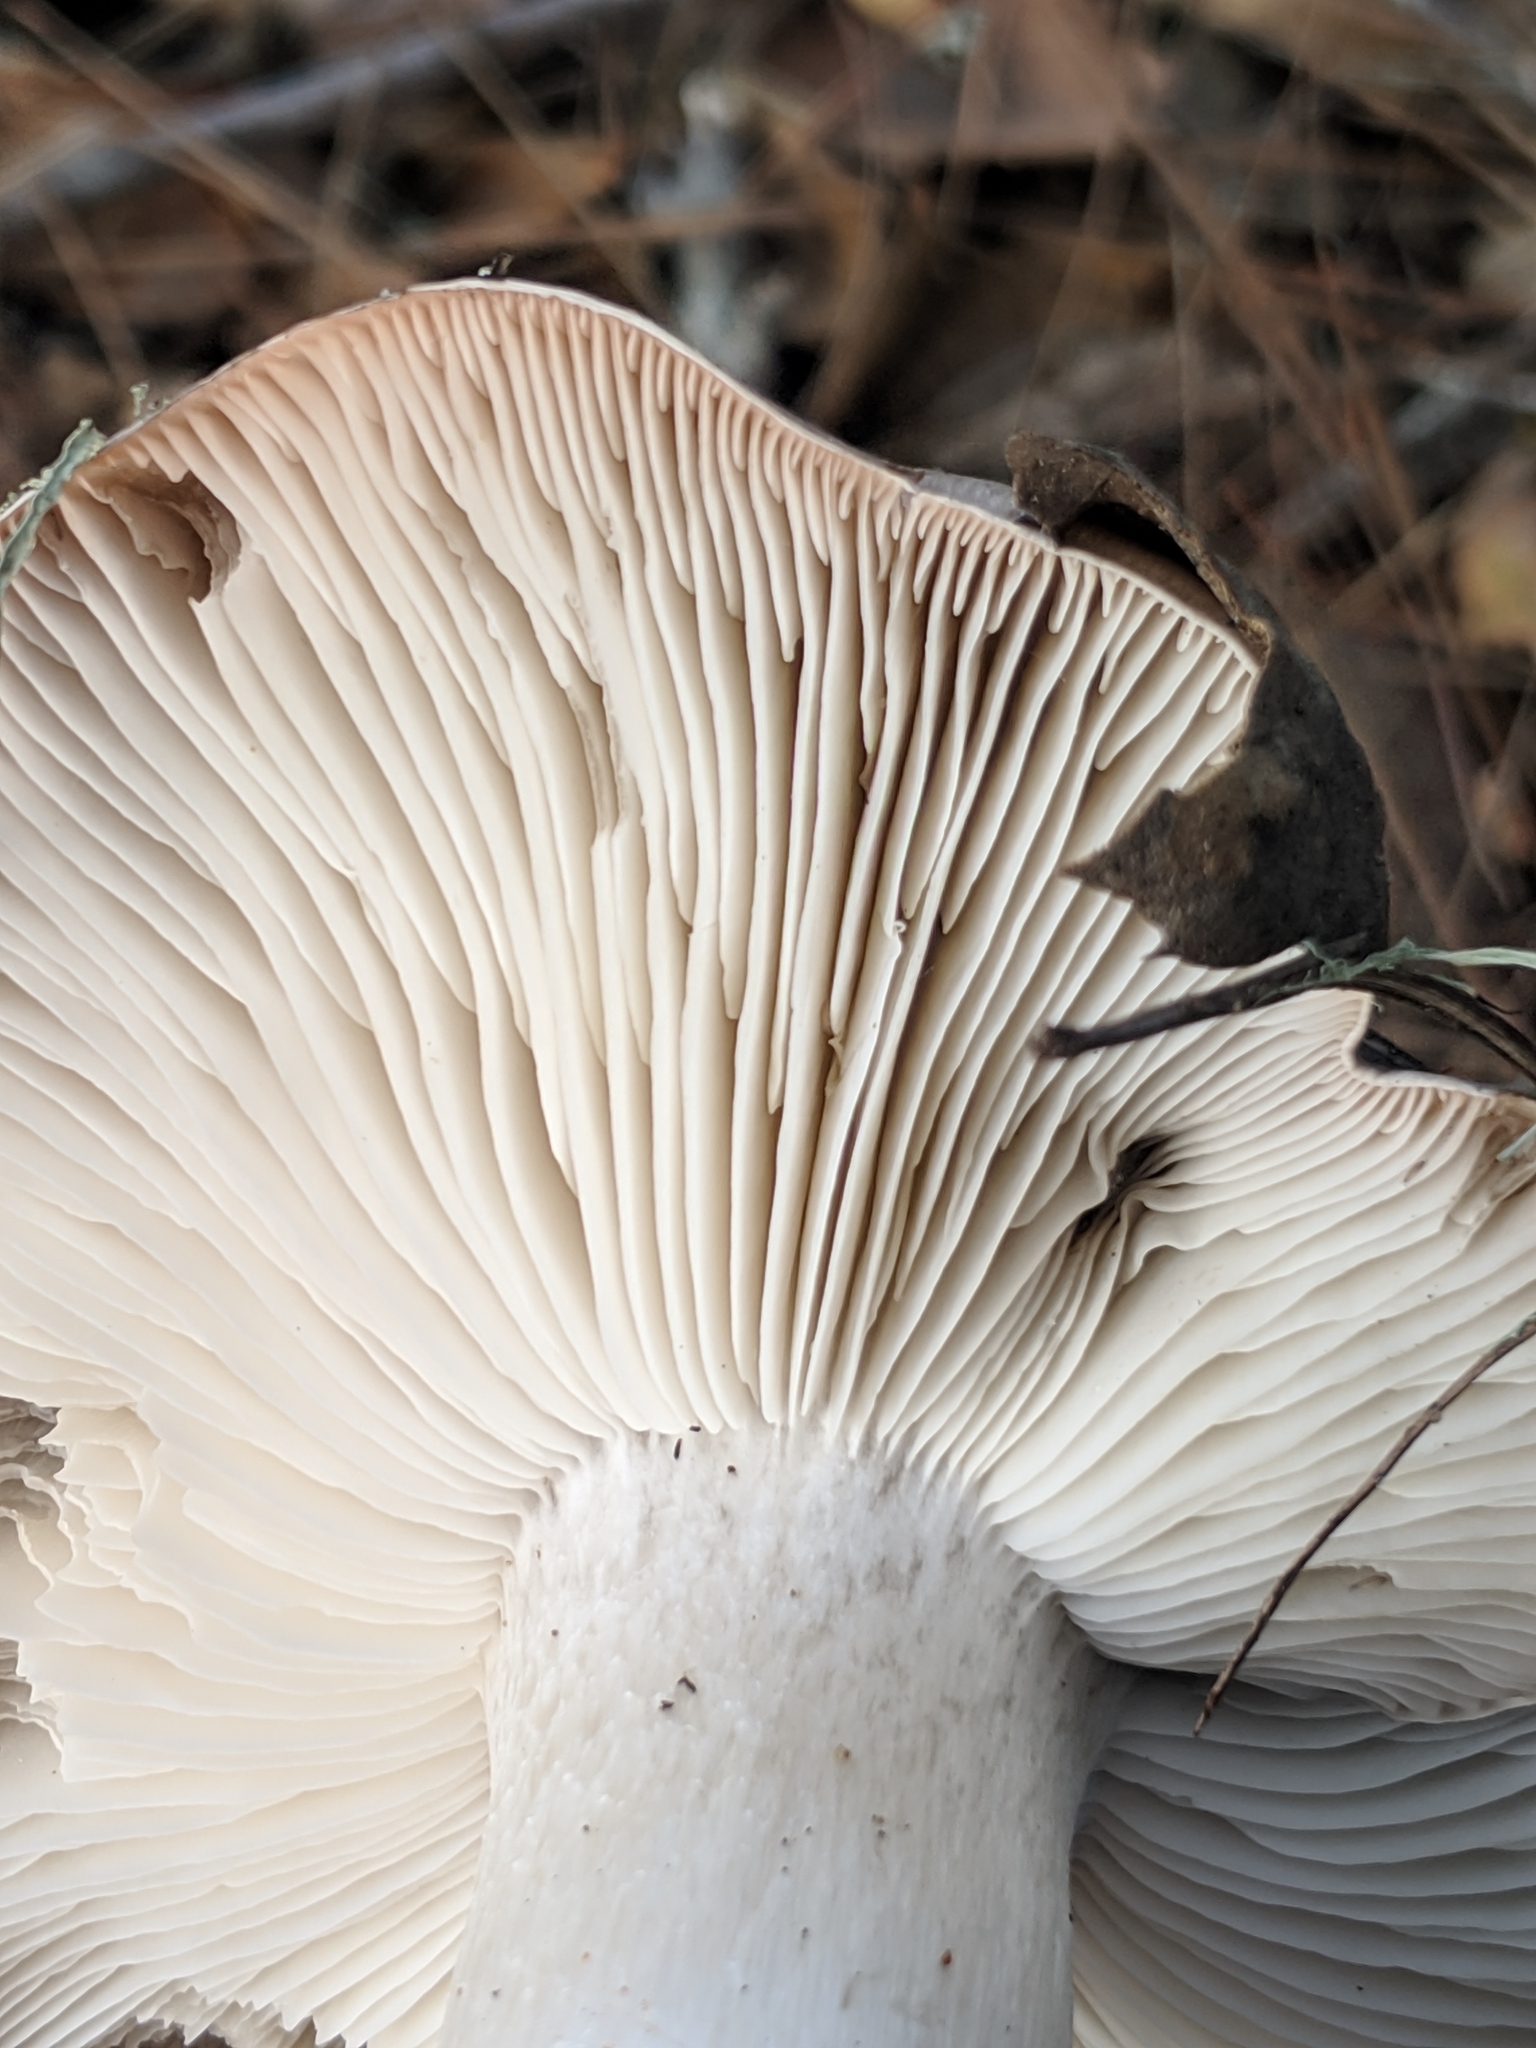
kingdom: Fungi
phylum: Basidiomycota
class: Agaricomycetes
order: Agaricales
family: Tricholomataceae
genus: Tricholoma
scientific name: Tricholoma griseoviolaceum
